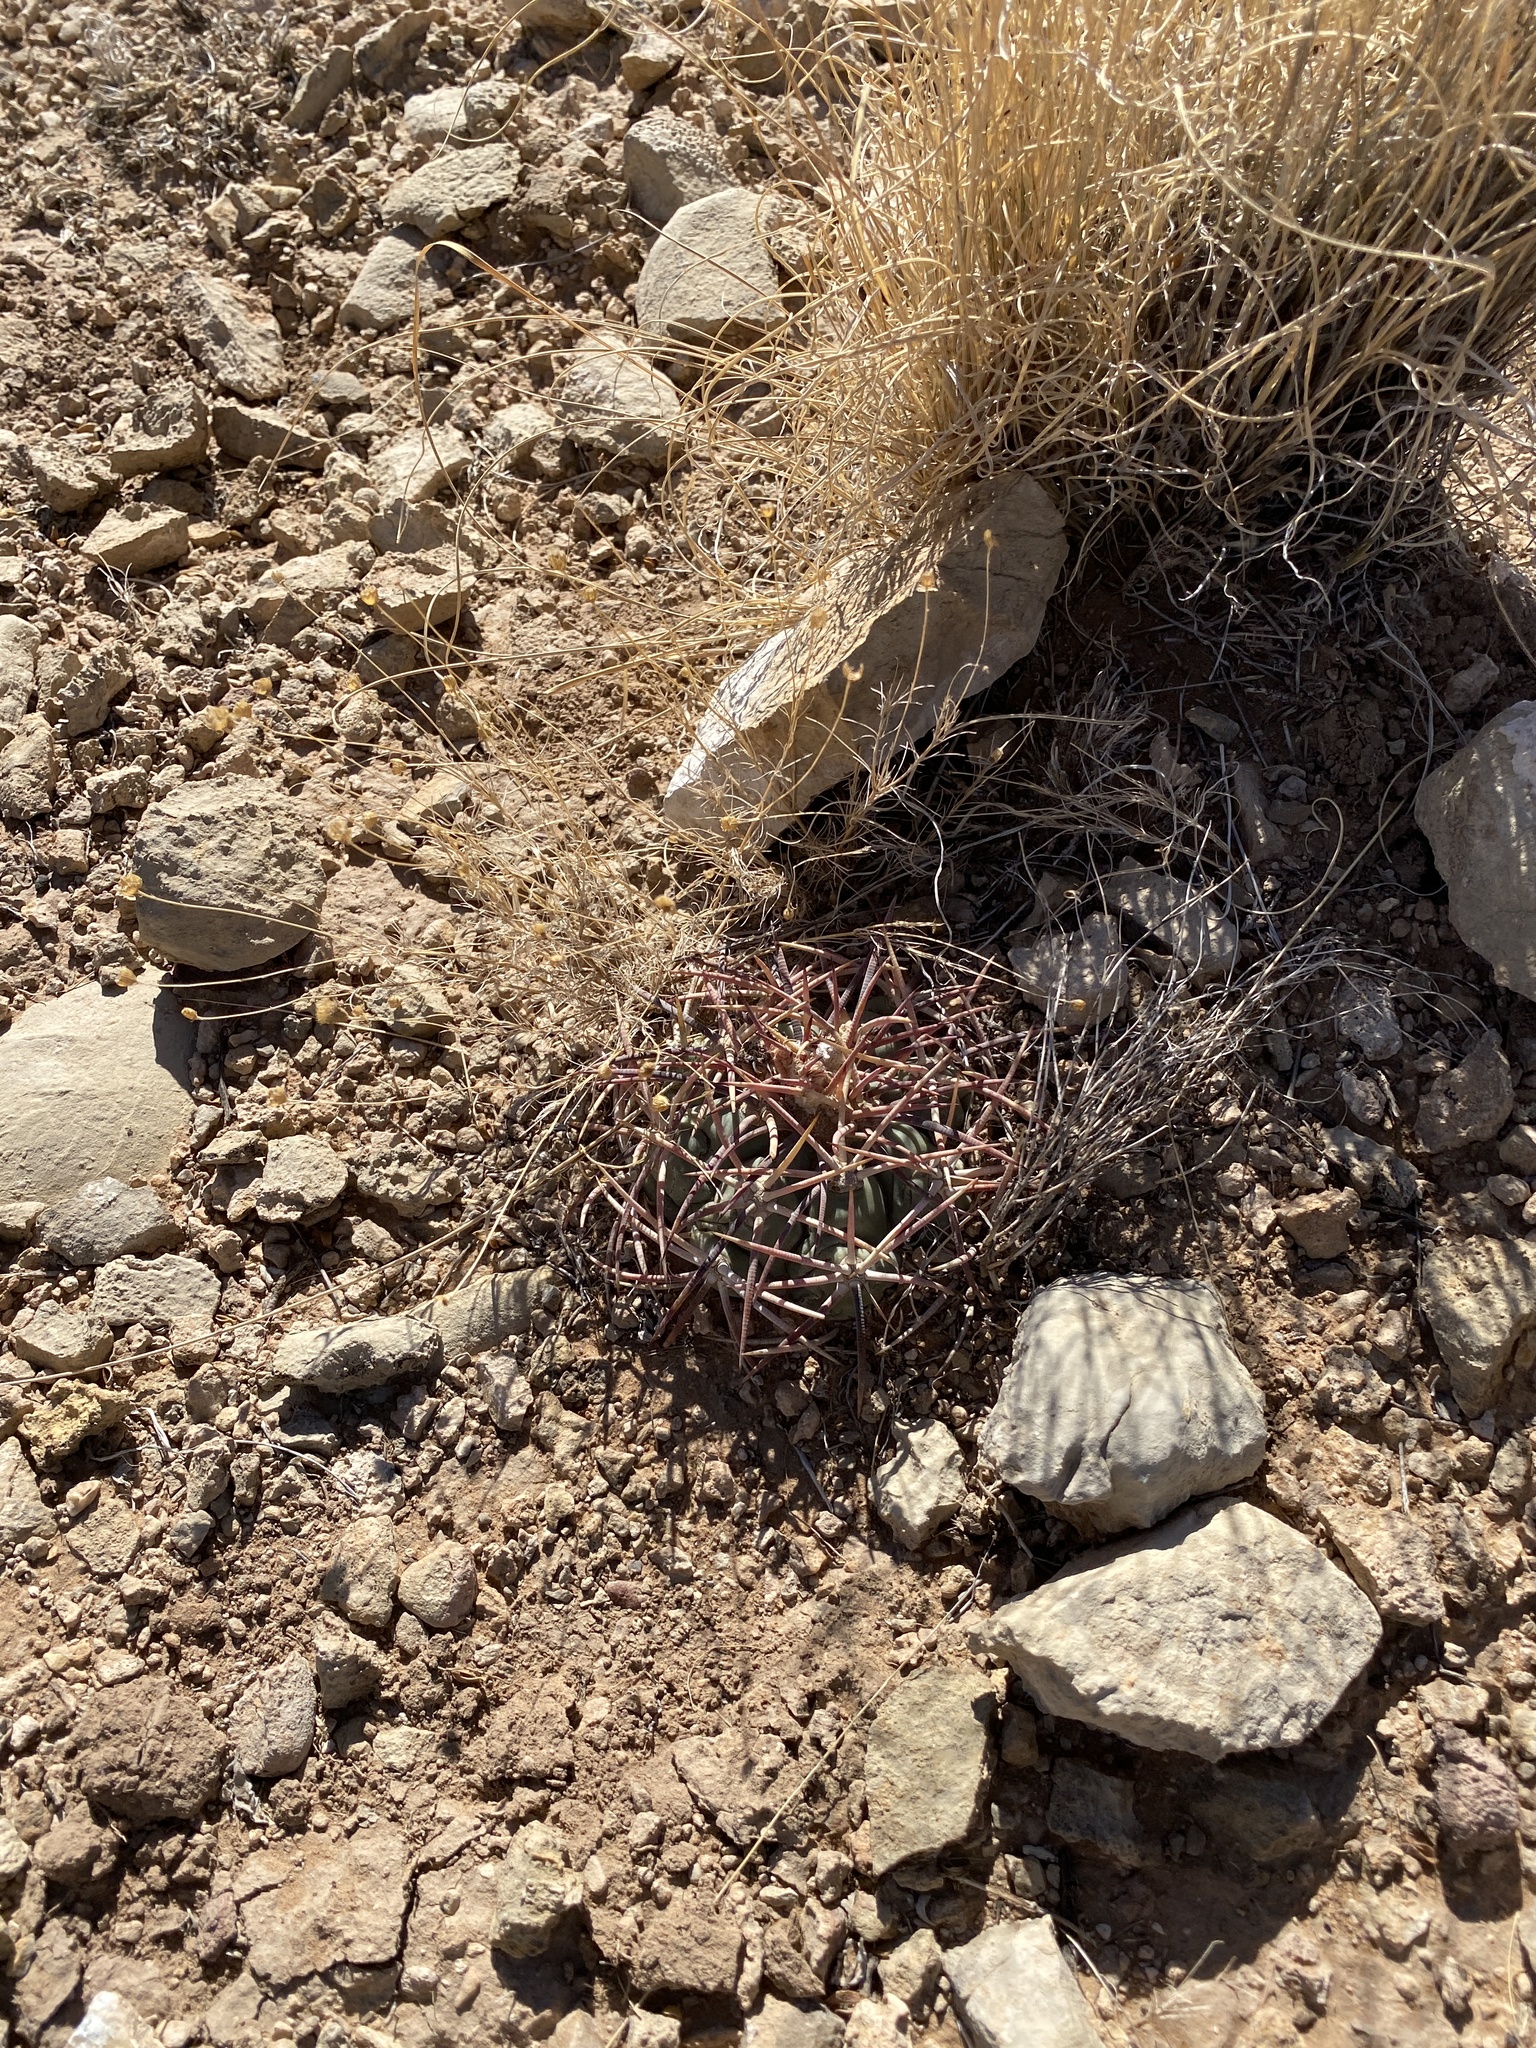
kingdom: Plantae
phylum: Tracheophyta
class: Magnoliopsida
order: Caryophyllales
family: Cactaceae
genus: Echinocactus
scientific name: Echinocactus horizonthalonius
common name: Devilshead
